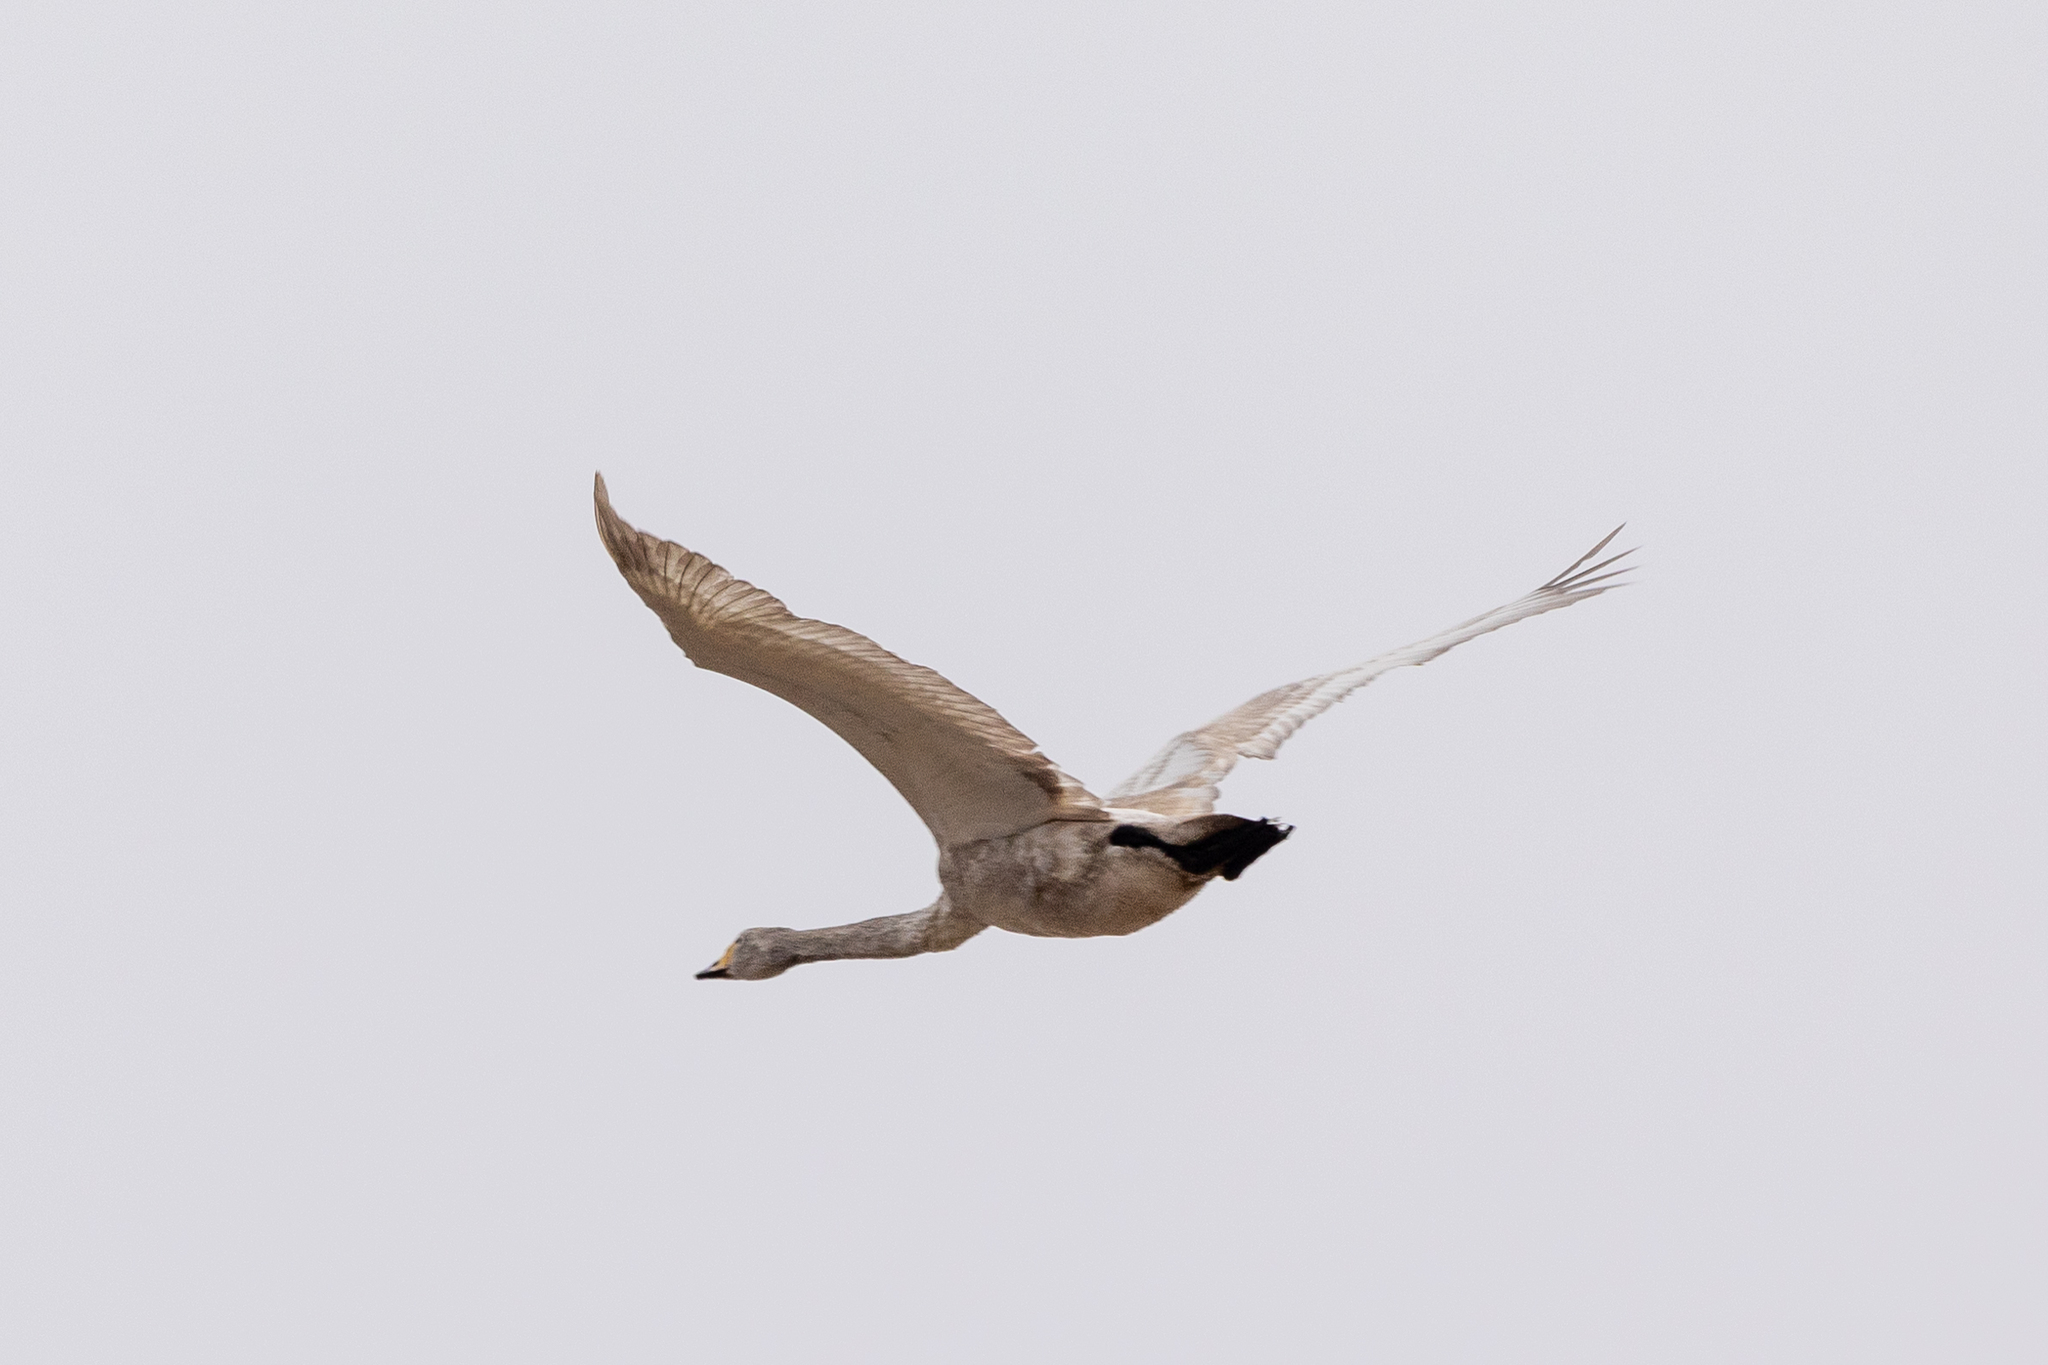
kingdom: Animalia
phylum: Chordata
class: Aves
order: Anseriformes
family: Anatidae
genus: Cygnus
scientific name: Cygnus cygnus
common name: Whooper swan
